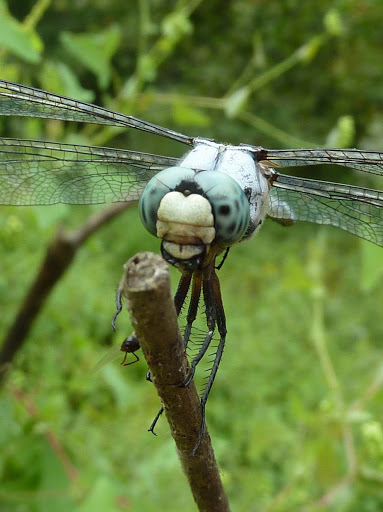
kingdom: Animalia
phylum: Arthropoda
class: Insecta
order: Odonata
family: Libellulidae
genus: Libellula
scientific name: Libellula vibrans
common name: Great blue skimmer
